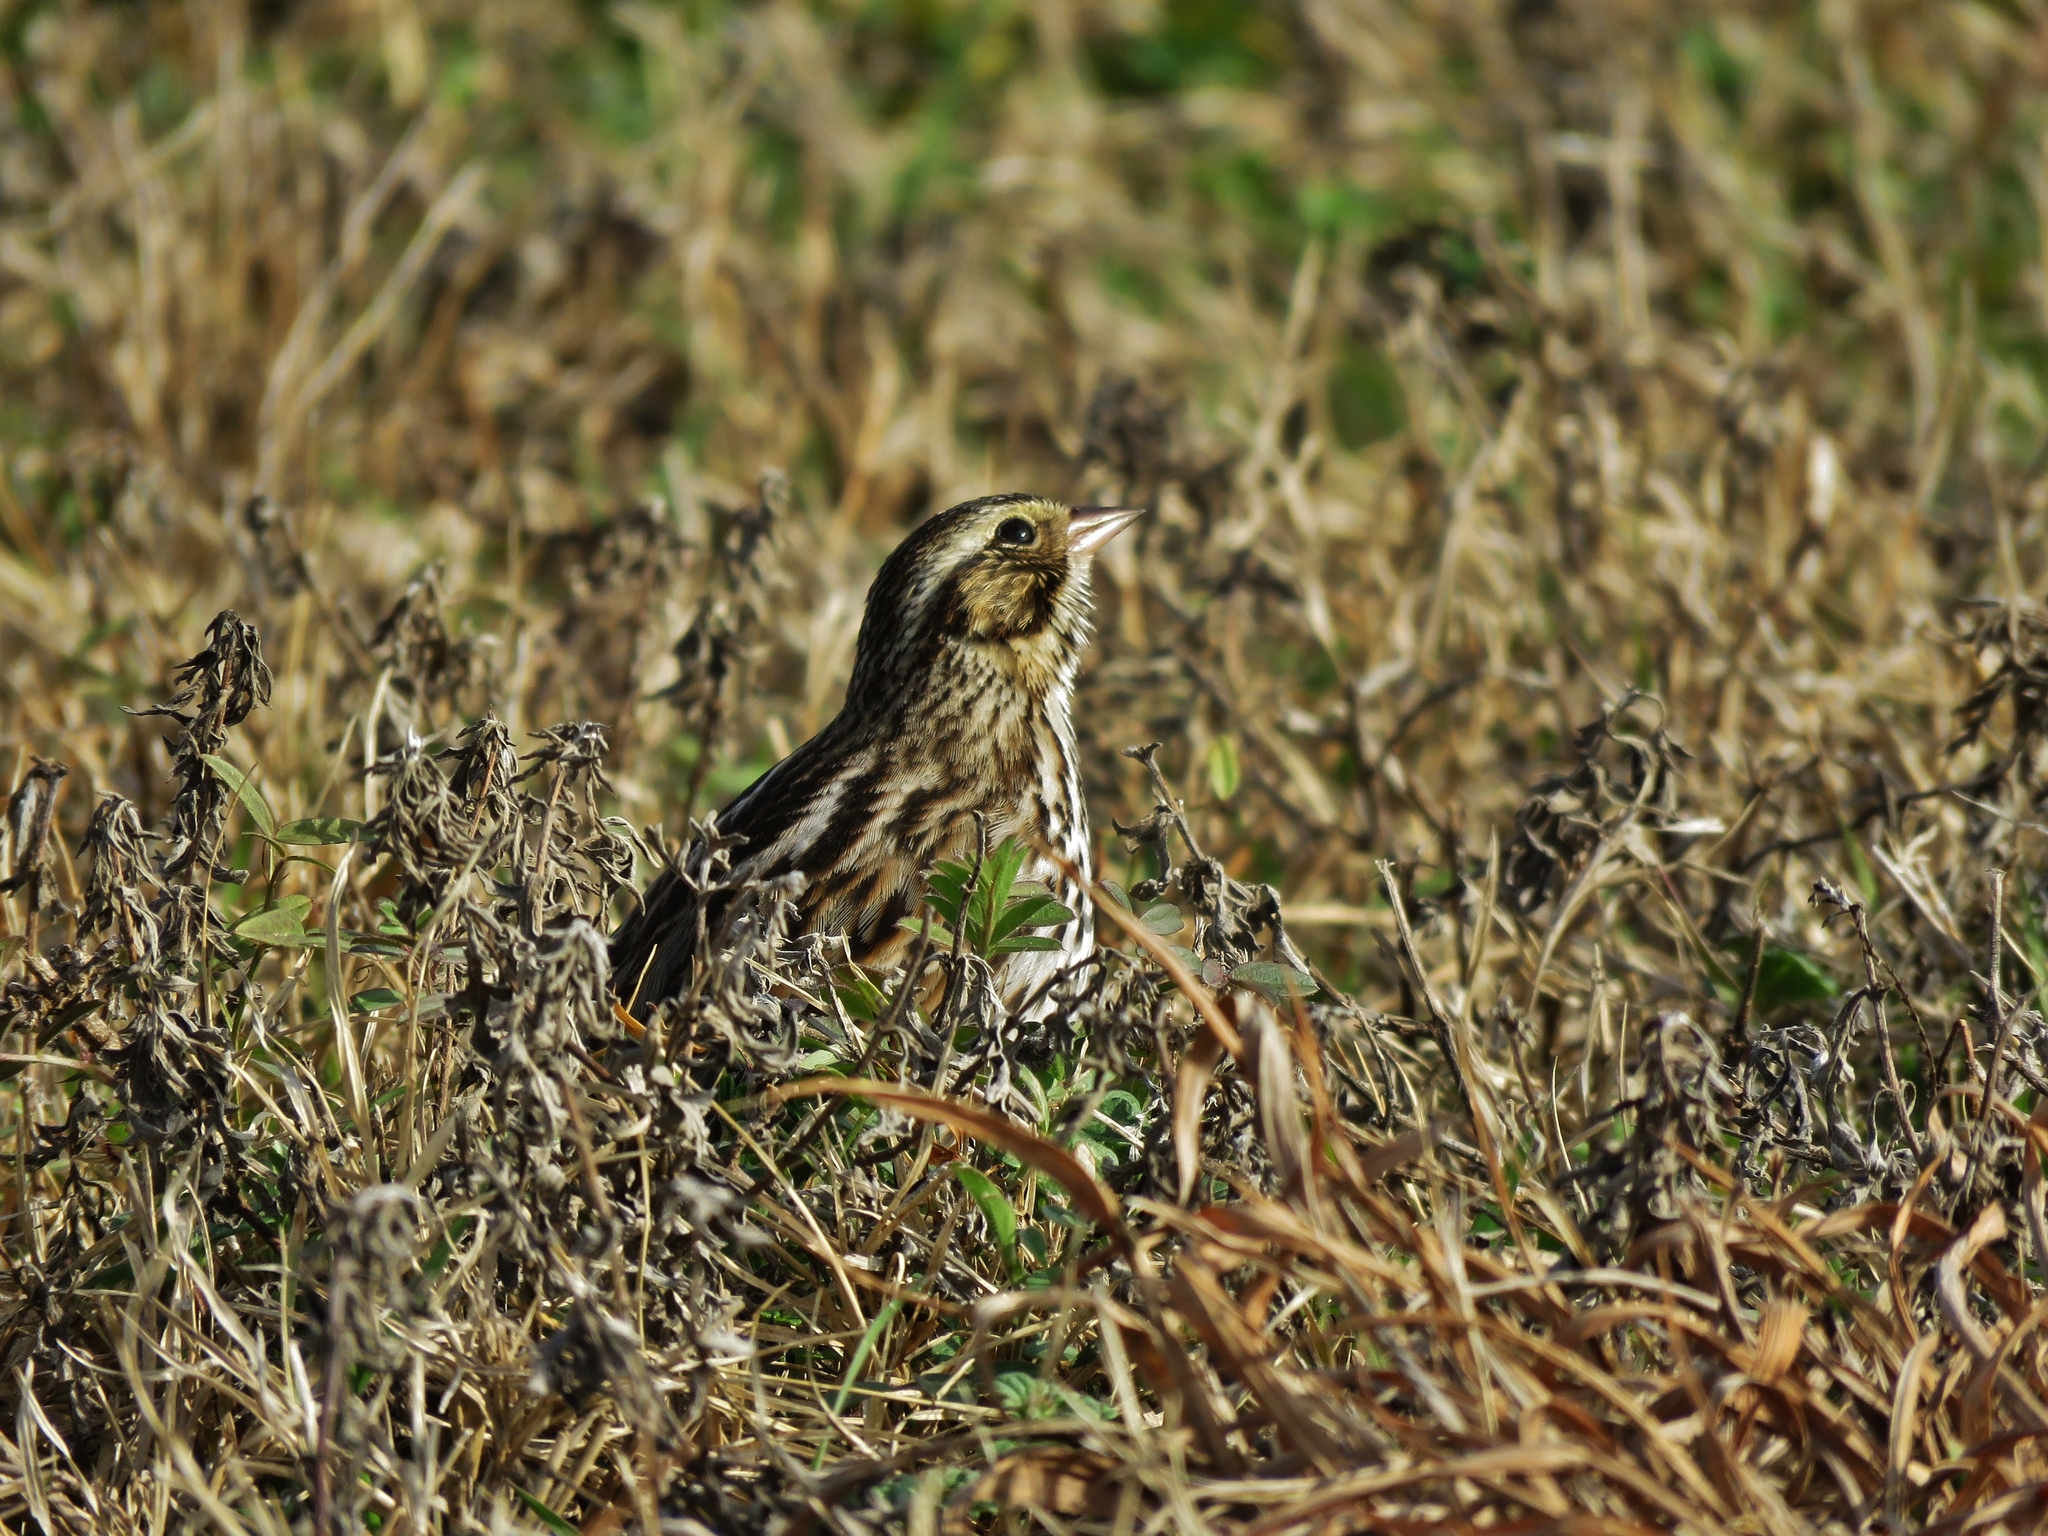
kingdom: Animalia
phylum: Chordata
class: Aves
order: Passeriformes
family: Passerellidae
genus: Passerculus
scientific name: Passerculus sandwichensis
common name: Savannah sparrow
